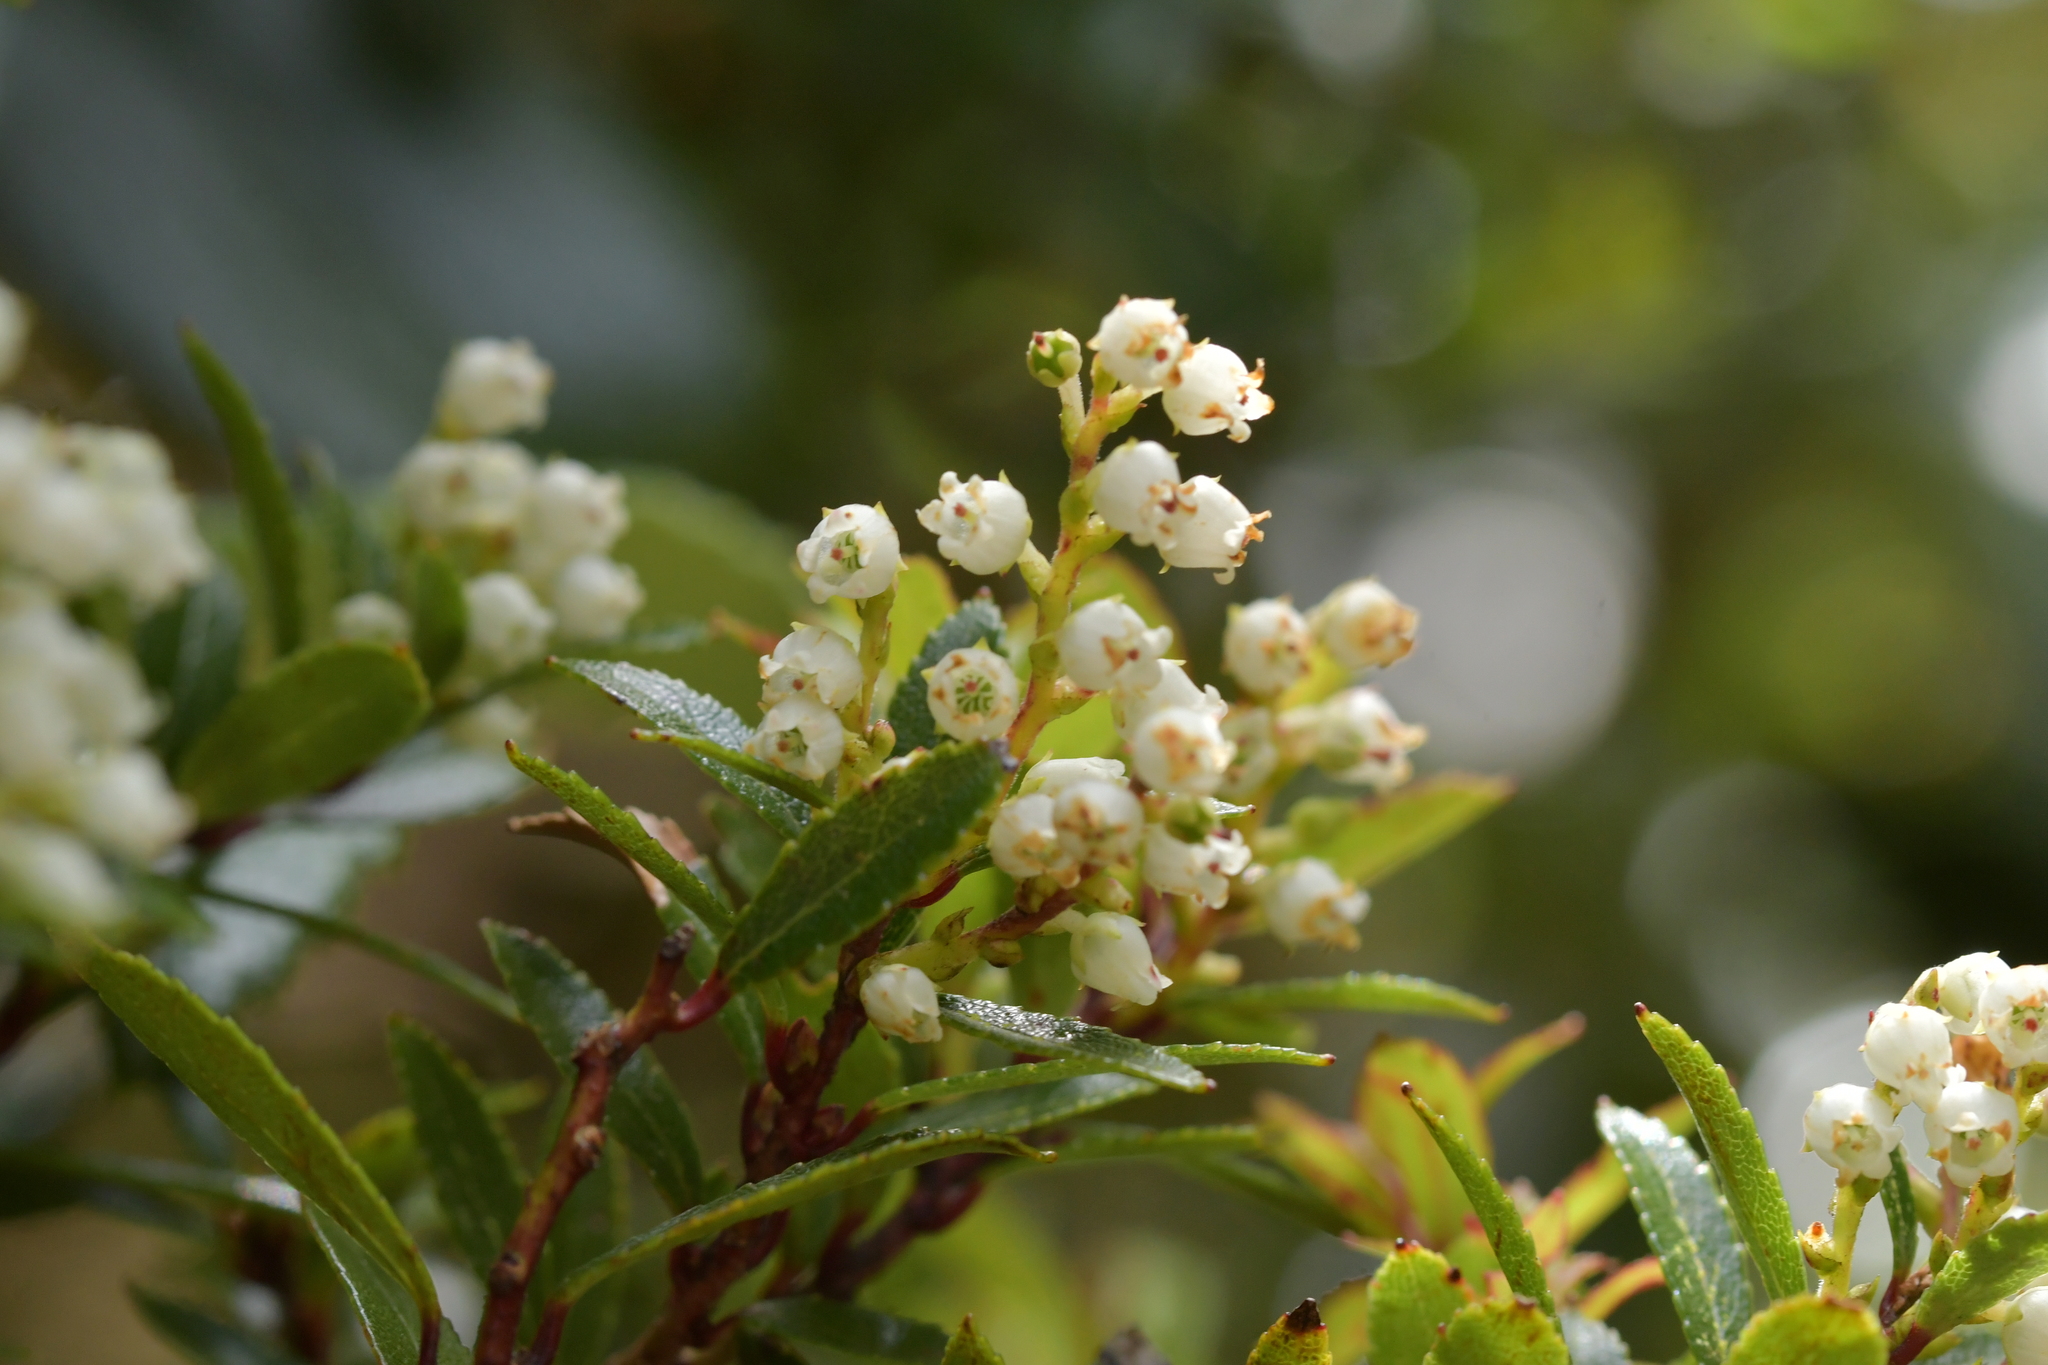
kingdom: Plantae
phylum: Tracheophyta
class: Magnoliopsida
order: Ericales
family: Ericaceae
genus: Gaultheria
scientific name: Gaultheria rupestris
